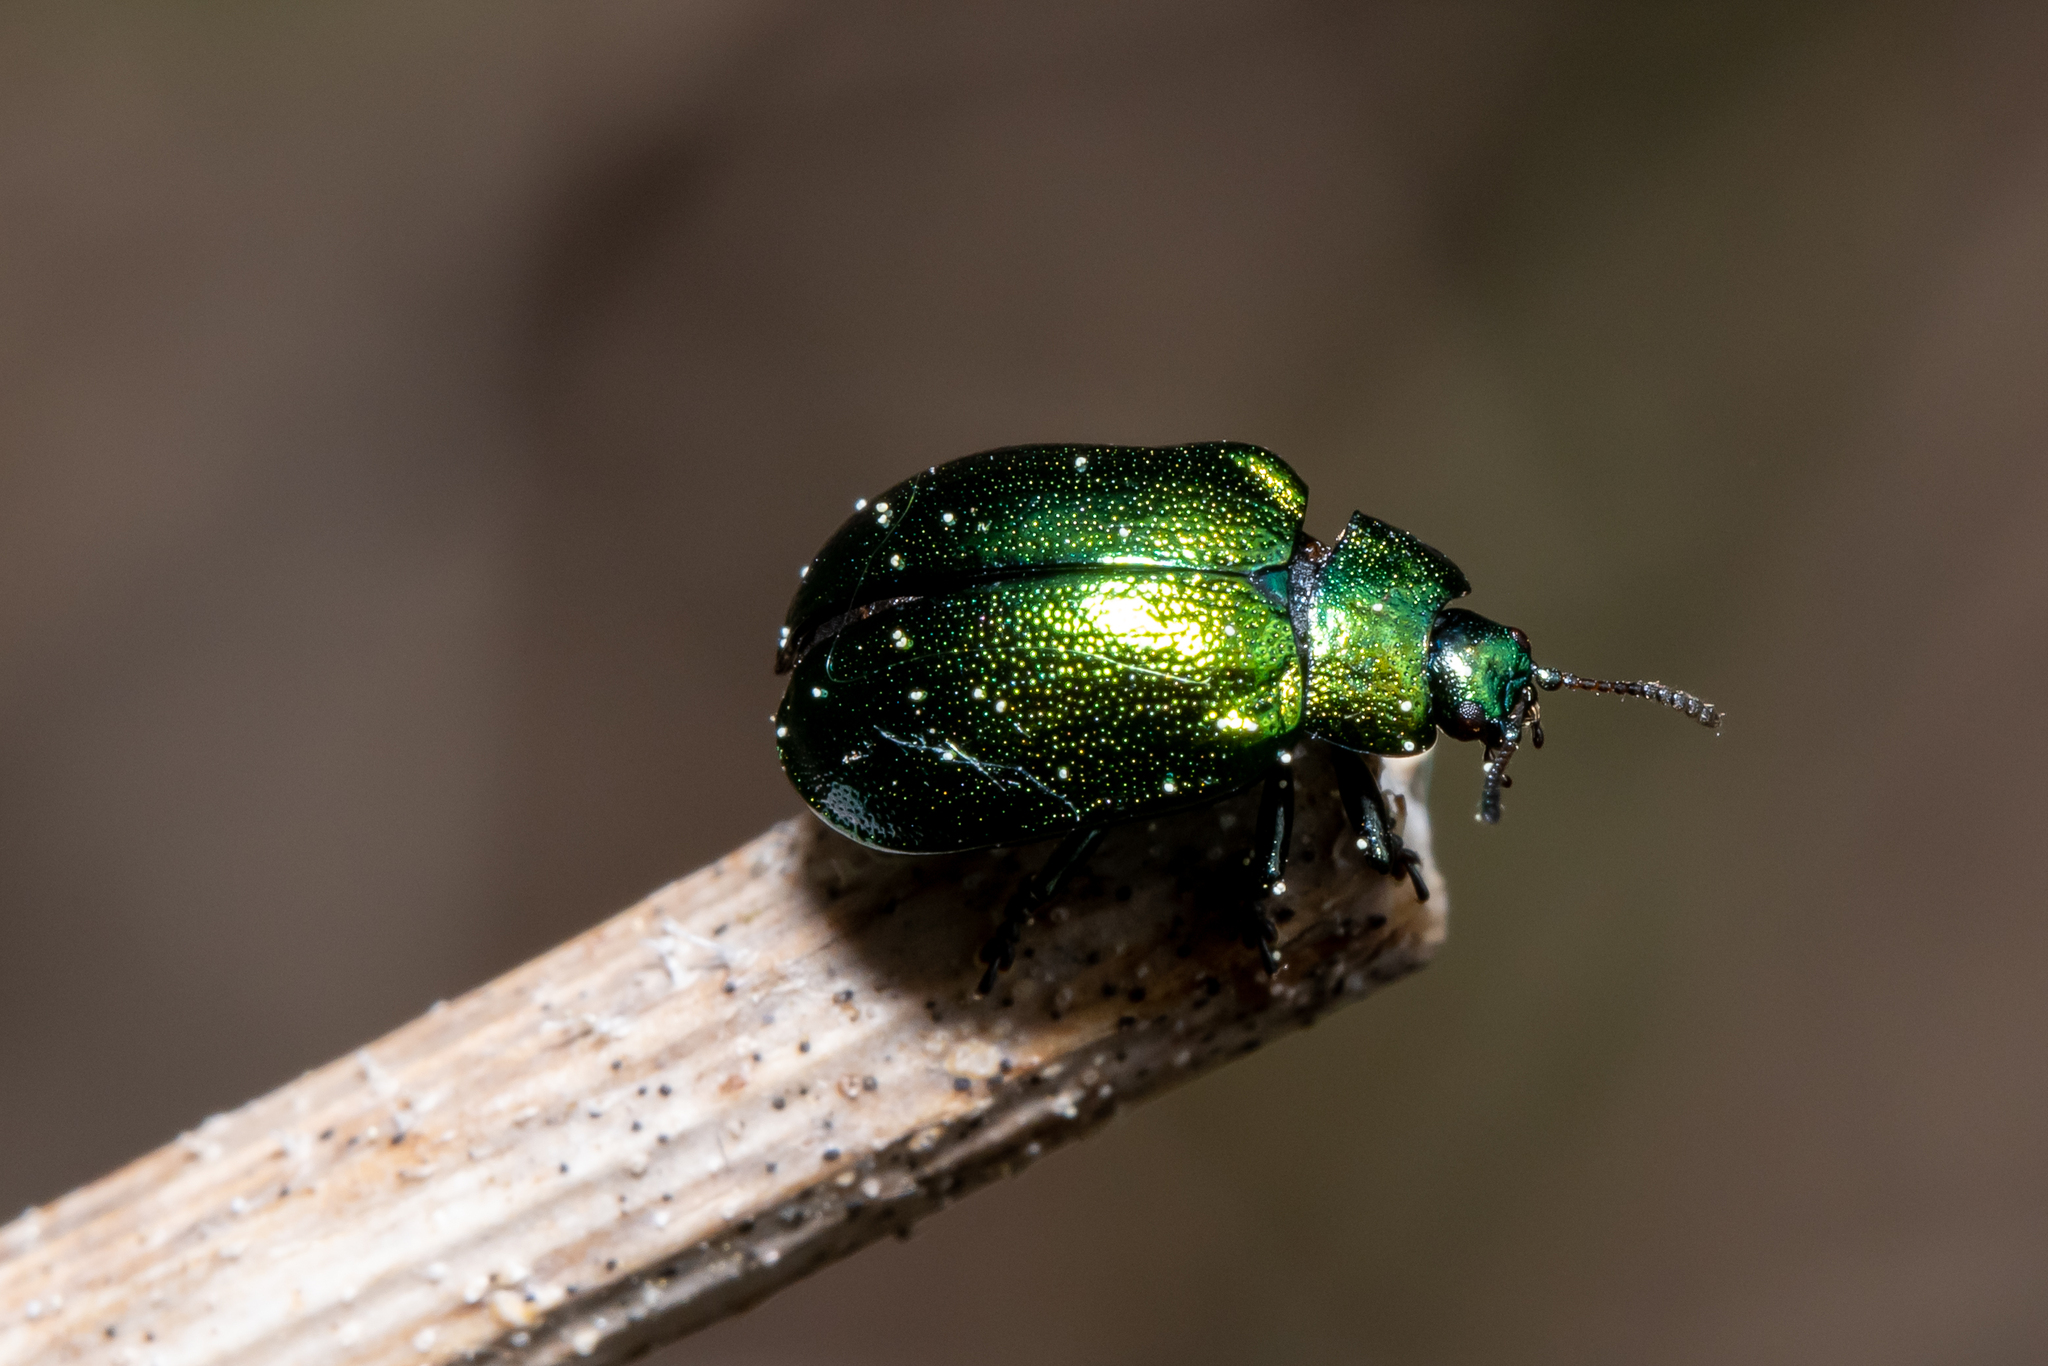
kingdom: Animalia
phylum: Arthropoda
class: Insecta
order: Coleoptera
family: Chrysomelidae
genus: Plagiosterna
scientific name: Plagiosterna aenea
